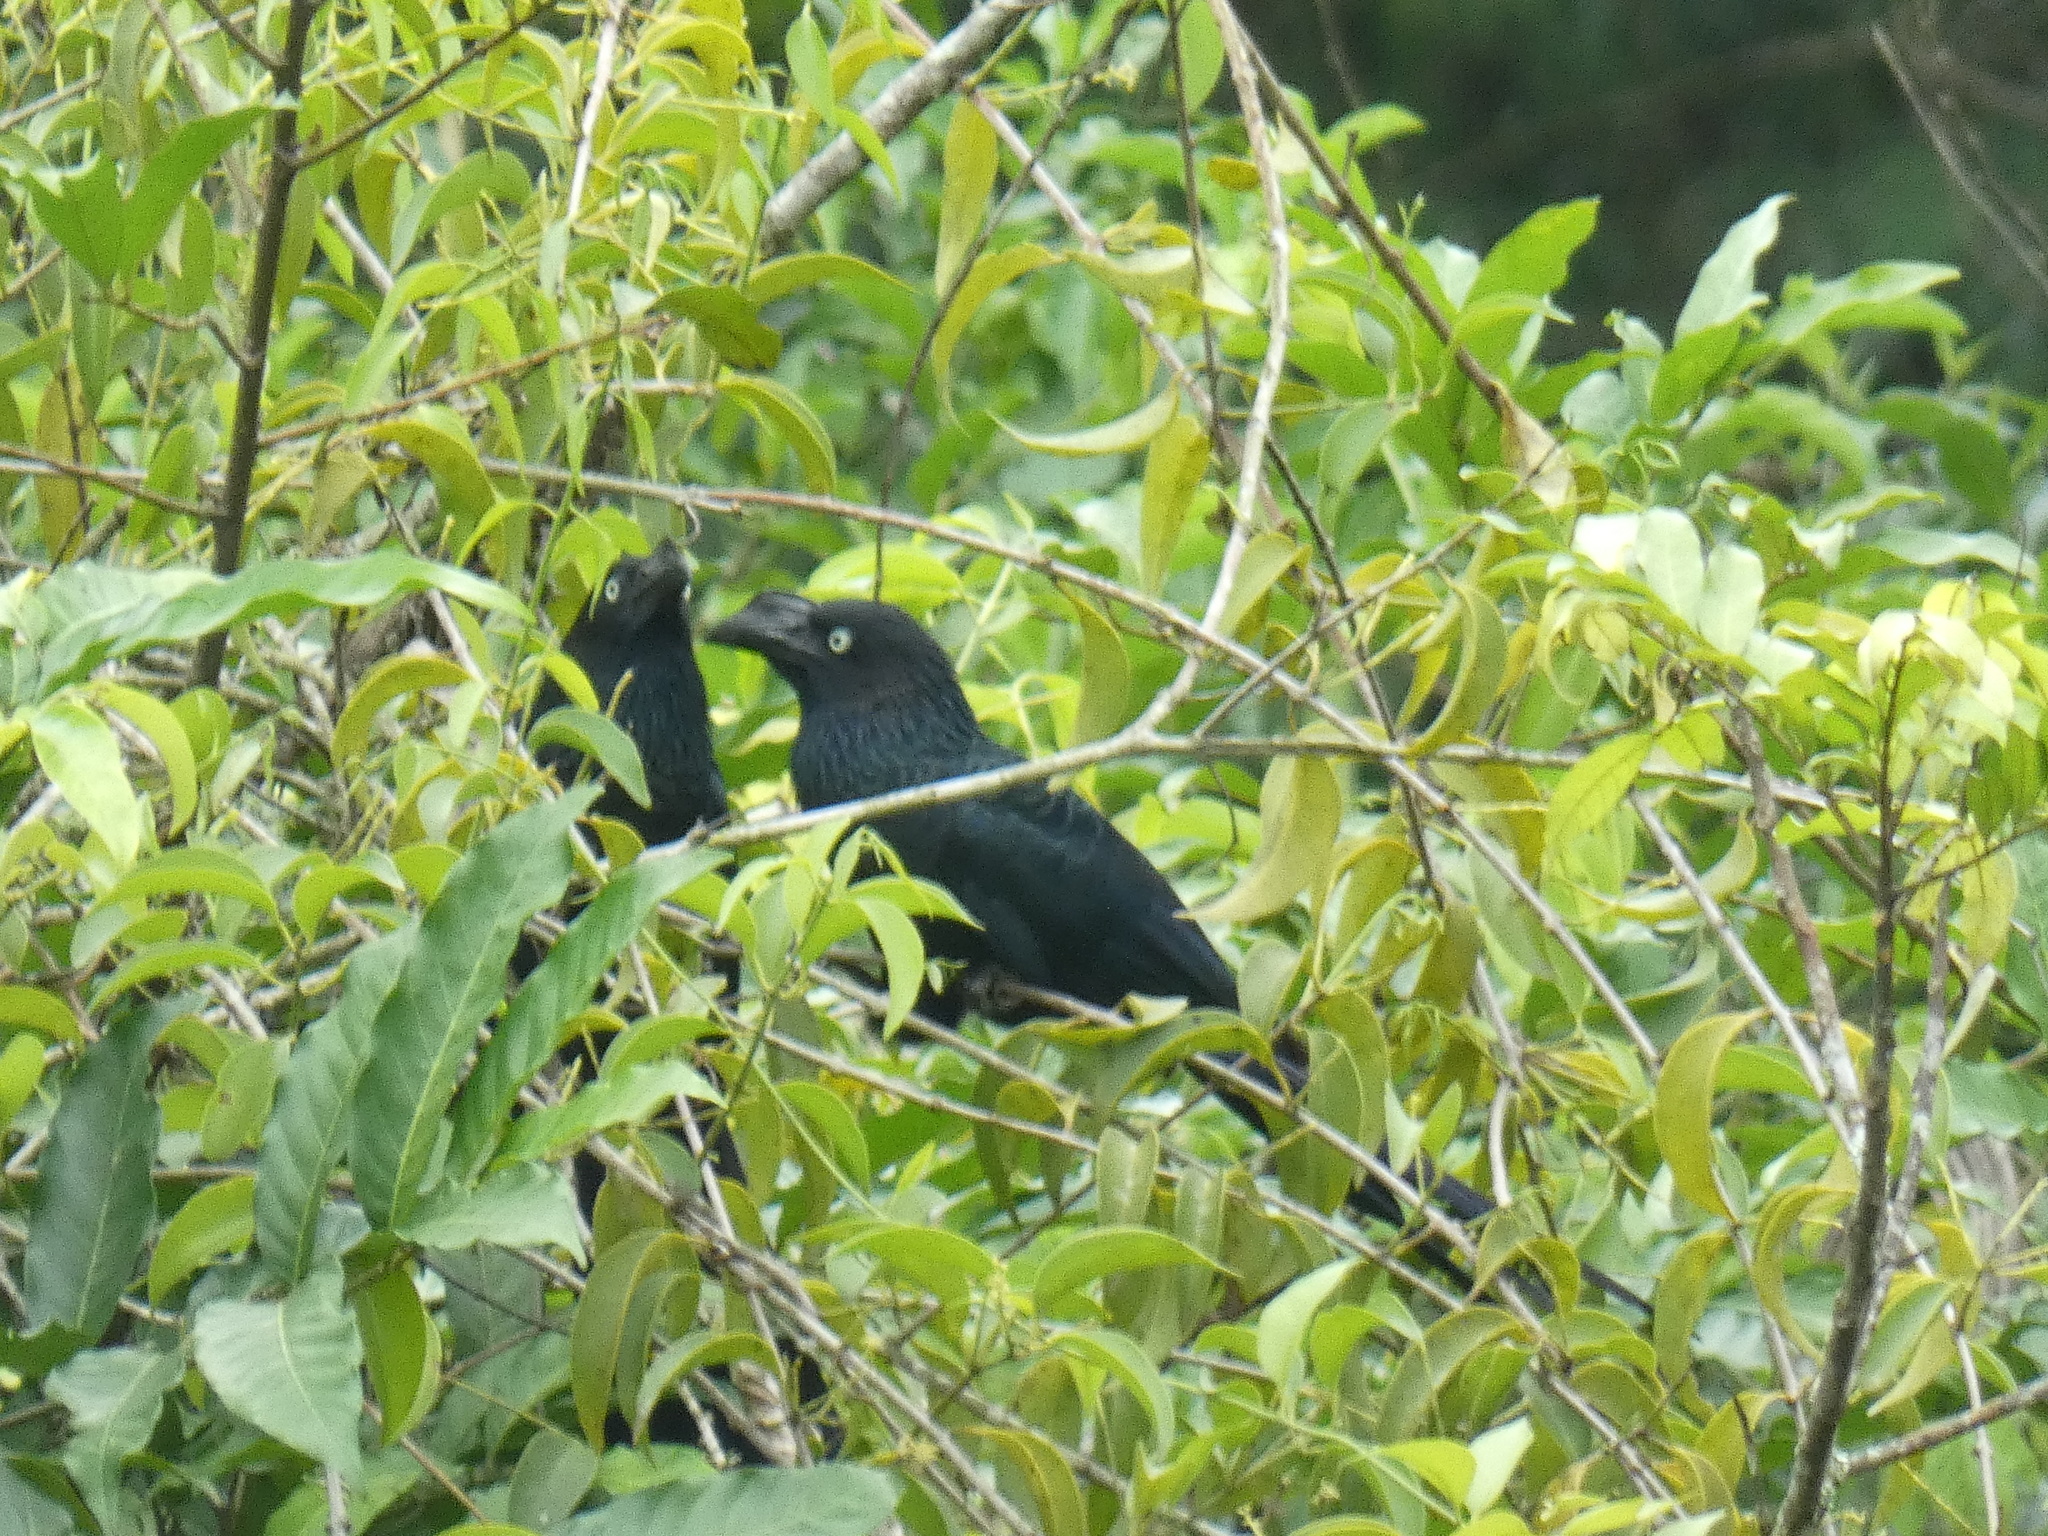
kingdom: Animalia
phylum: Chordata
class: Aves
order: Cuculiformes
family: Cuculidae
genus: Crotophaga
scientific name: Crotophaga major
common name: Greater ani
